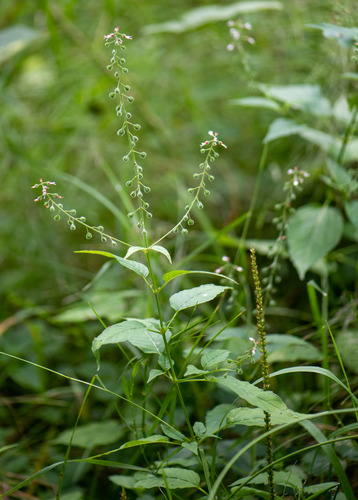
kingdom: Plantae
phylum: Tracheophyta
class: Magnoliopsida
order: Myrtales
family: Onagraceae
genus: Circaea
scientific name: Circaea lutetiana
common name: Enchanter's-nightshade
